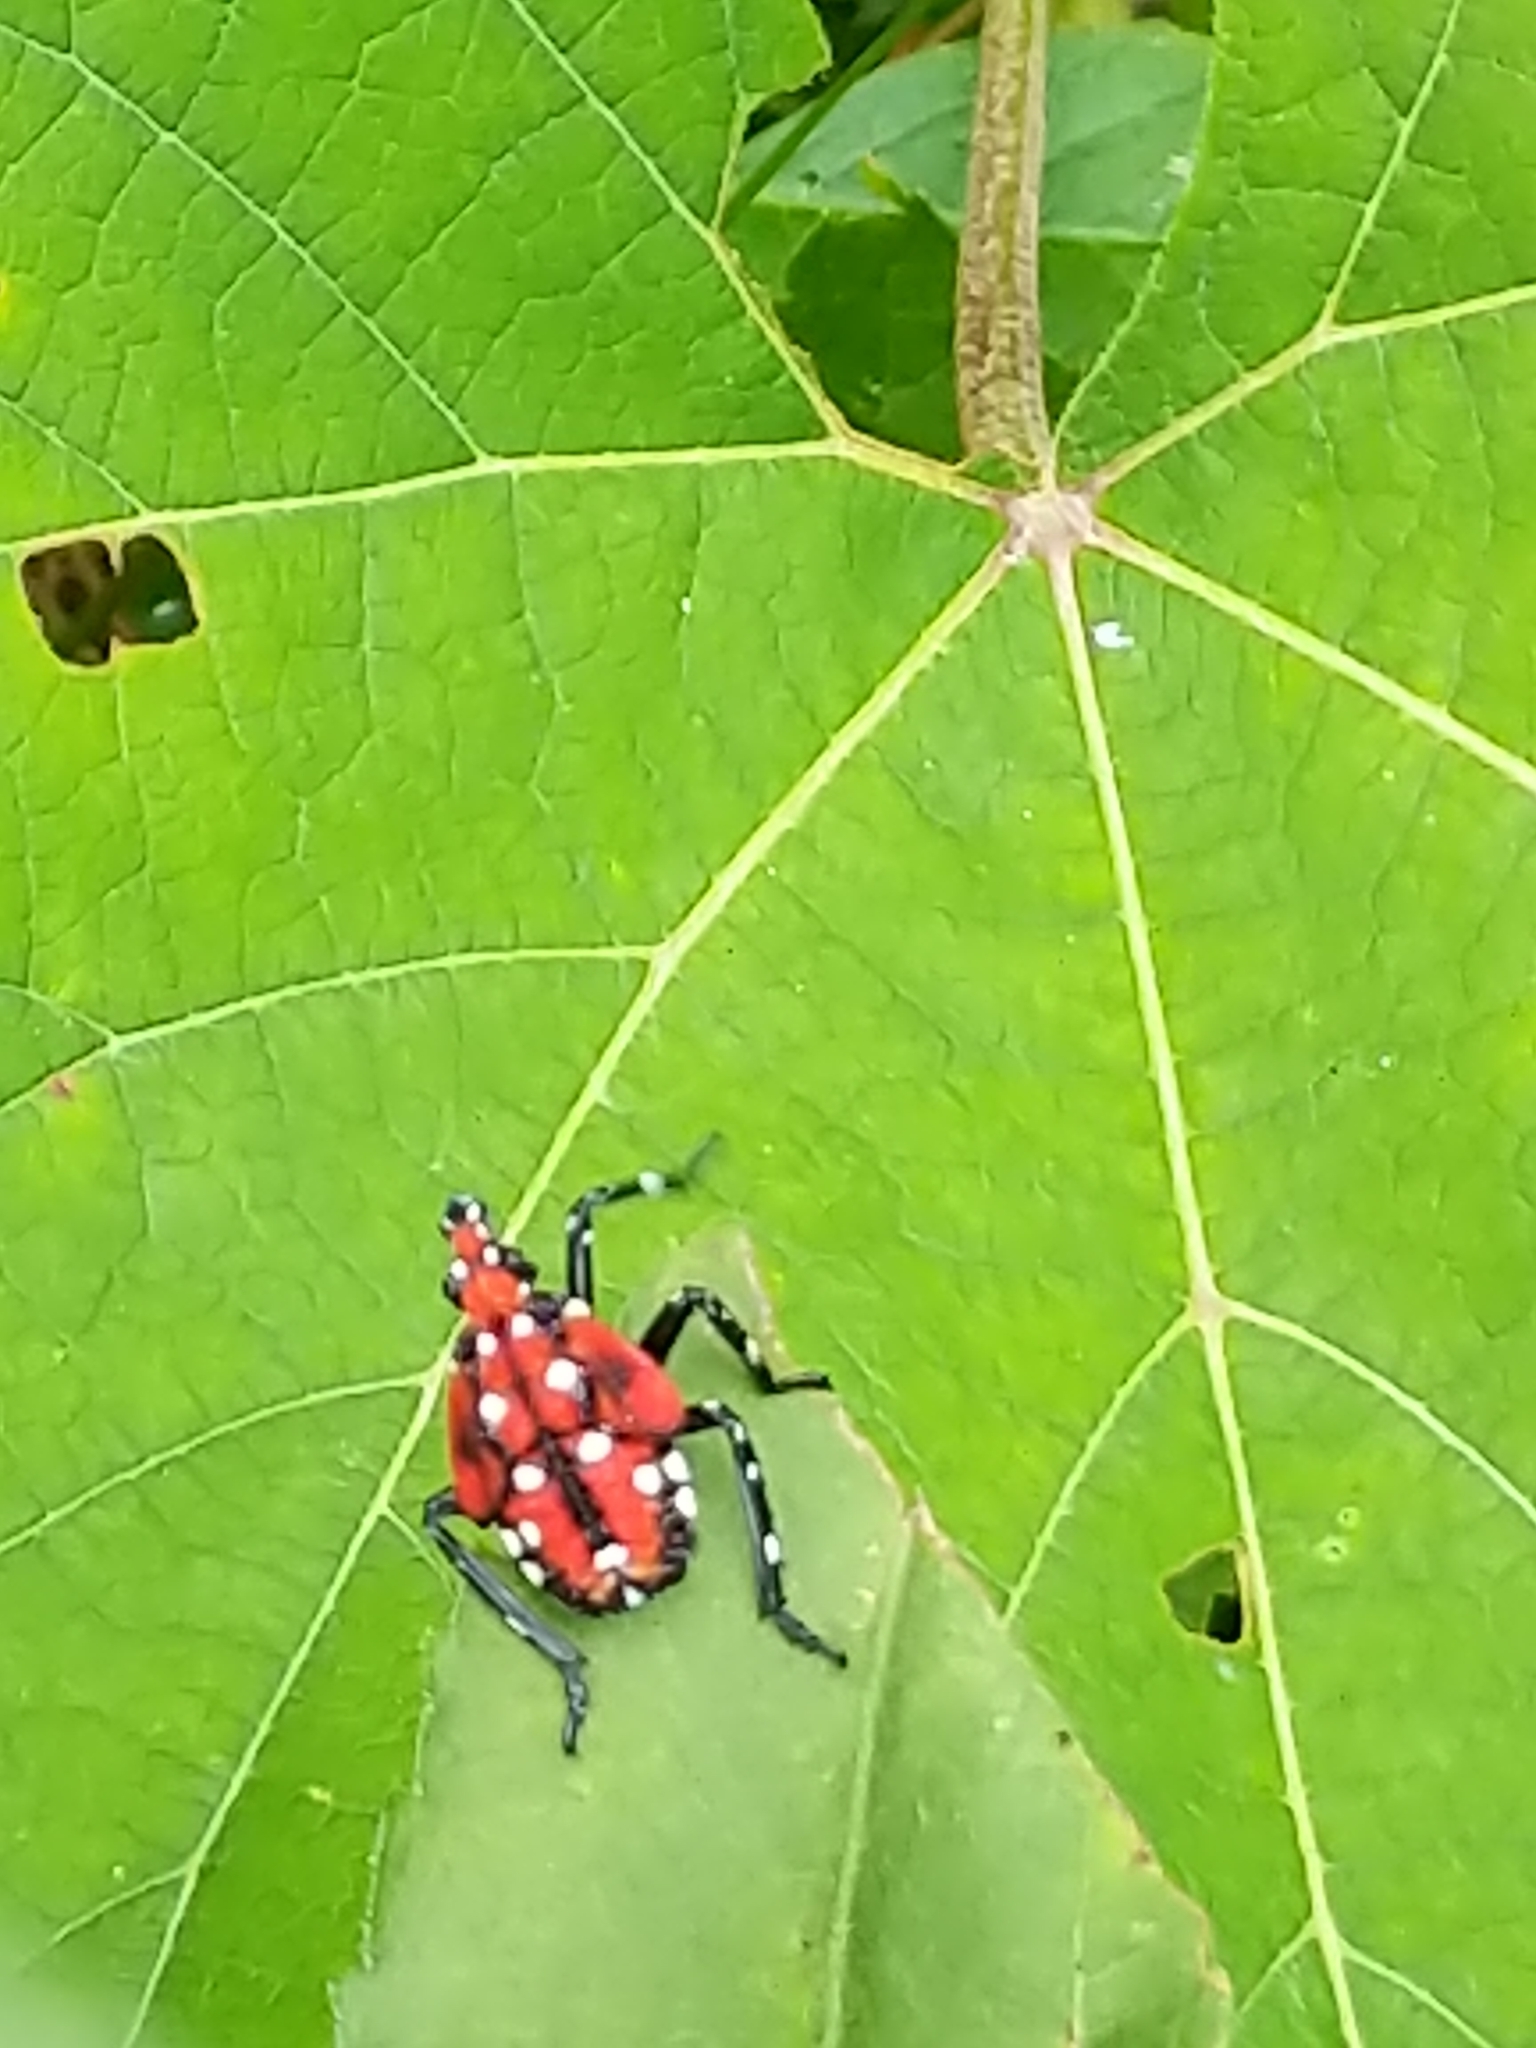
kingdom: Animalia
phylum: Arthropoda
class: Insecta
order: Hemiptera
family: Fulgoridae
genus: Lycorma
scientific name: Lycorma delicatula
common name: Spotted lanternfly
